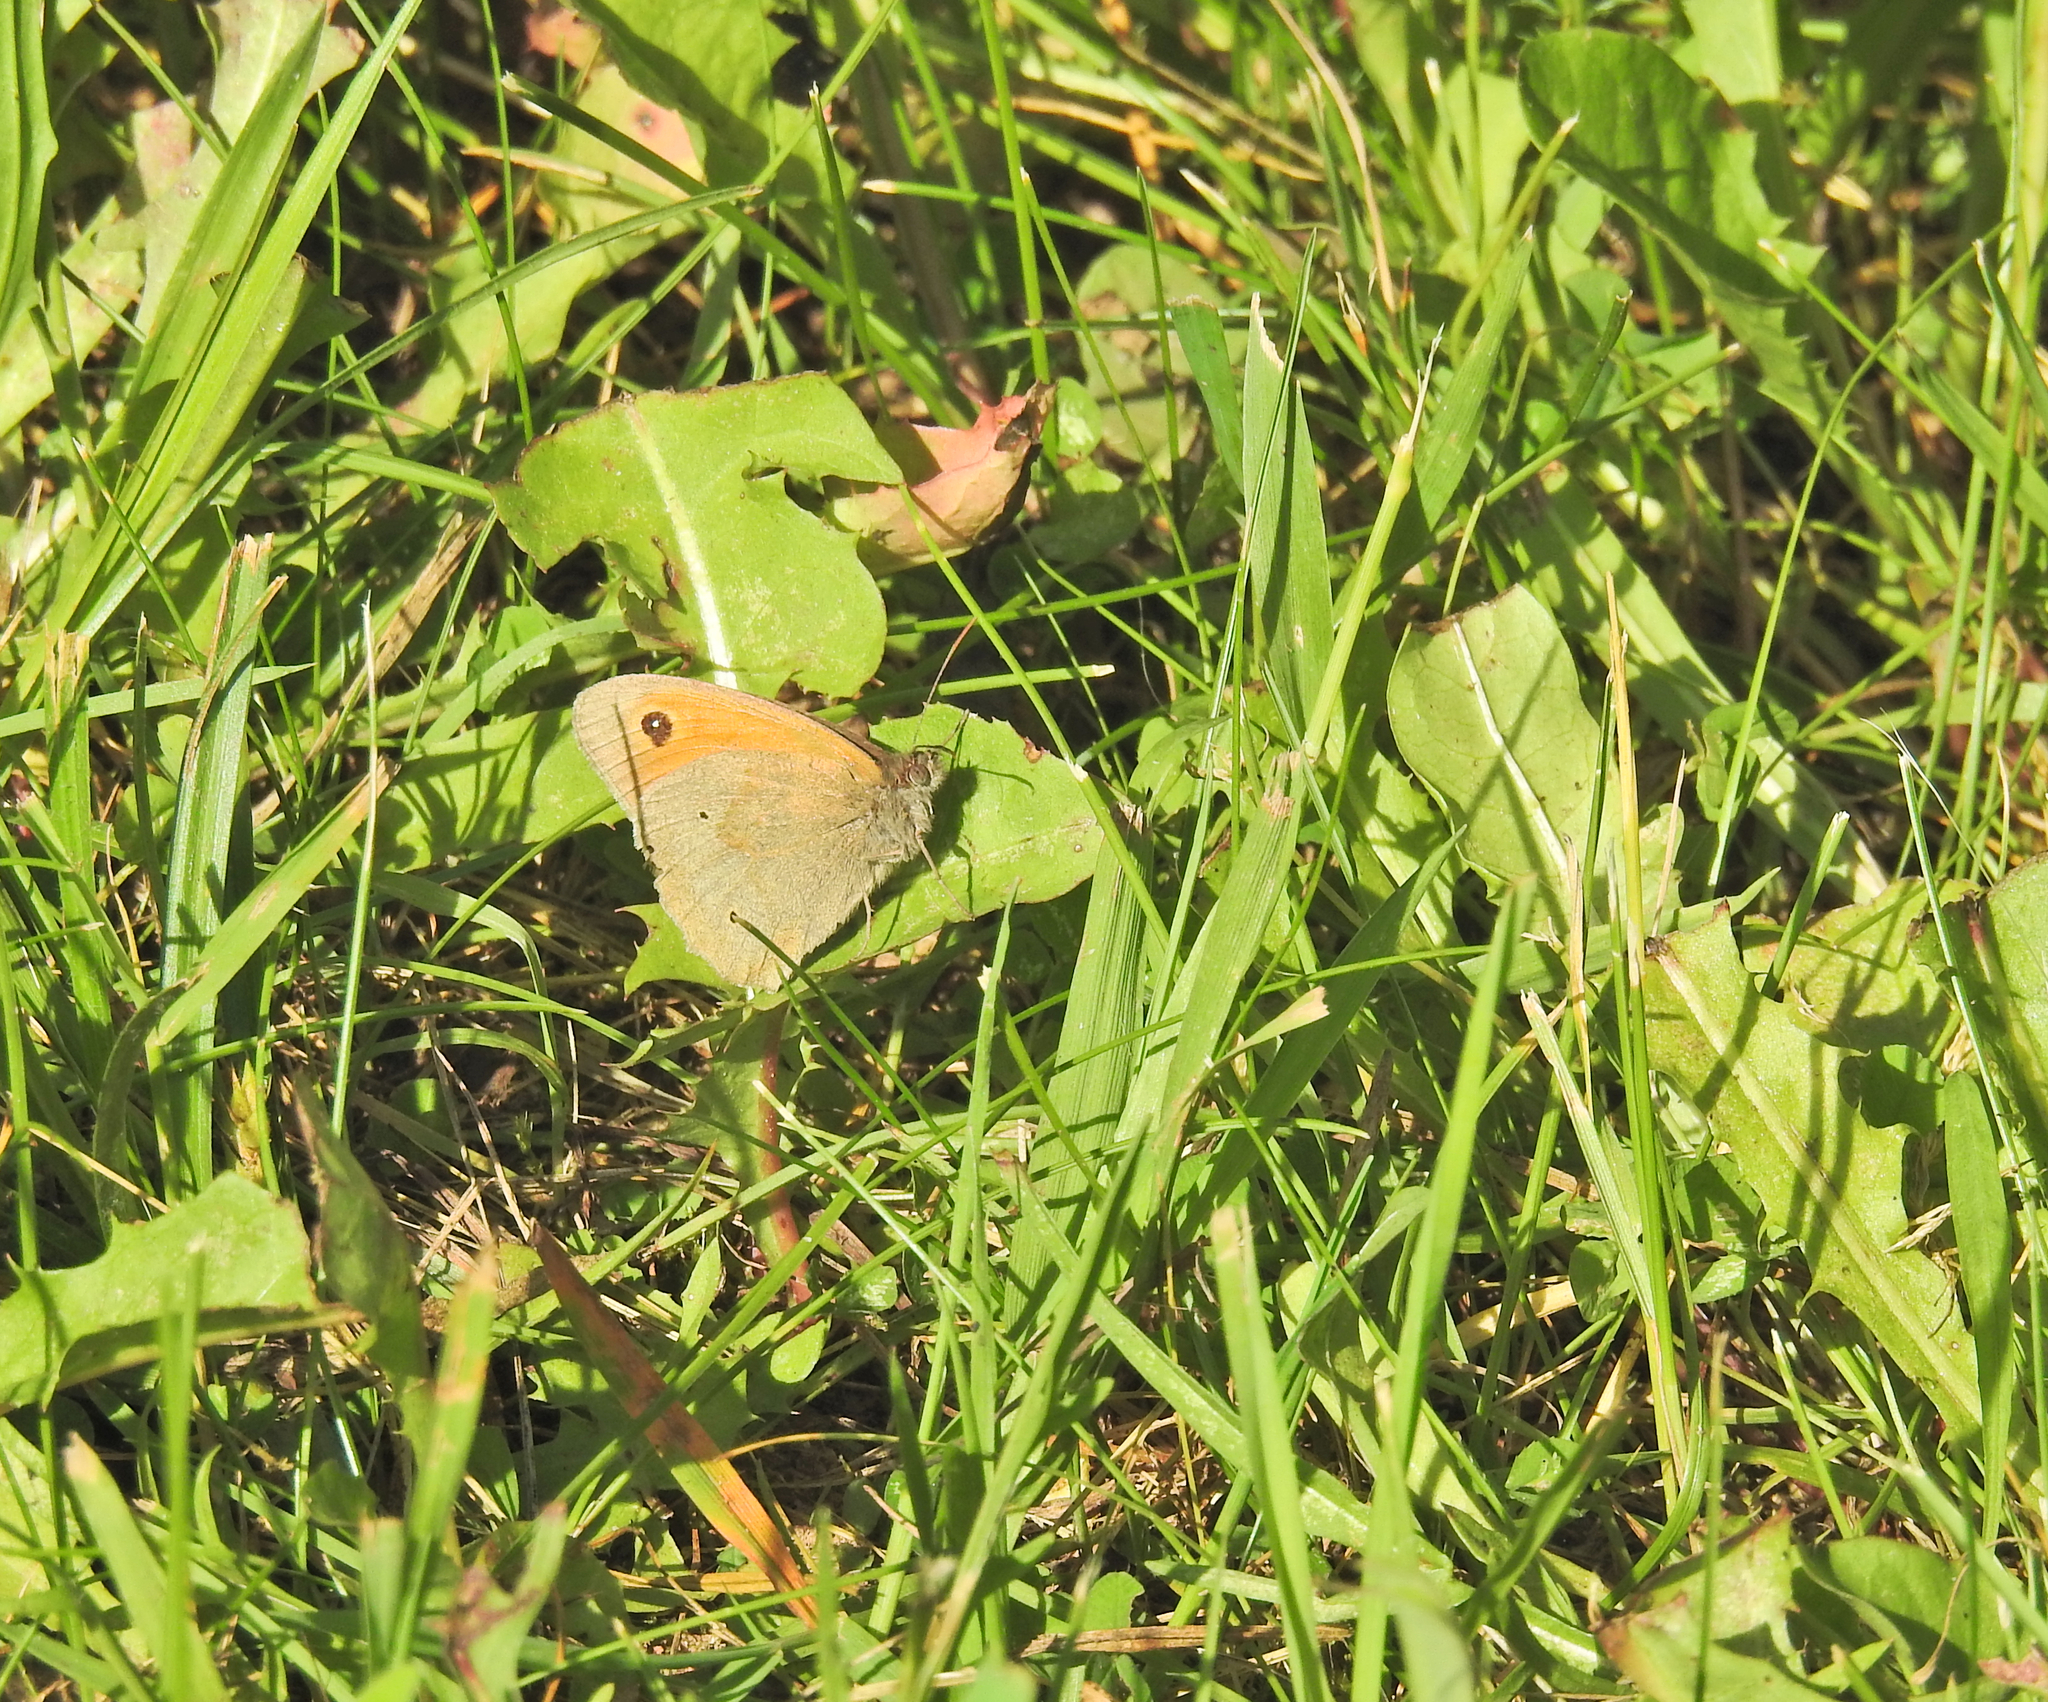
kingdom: Animalia
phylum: Arthropoda
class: Insecta
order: Lepidoptera
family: Nymphalidae
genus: Maniola
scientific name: Maniola jurtina
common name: Meadow brown
